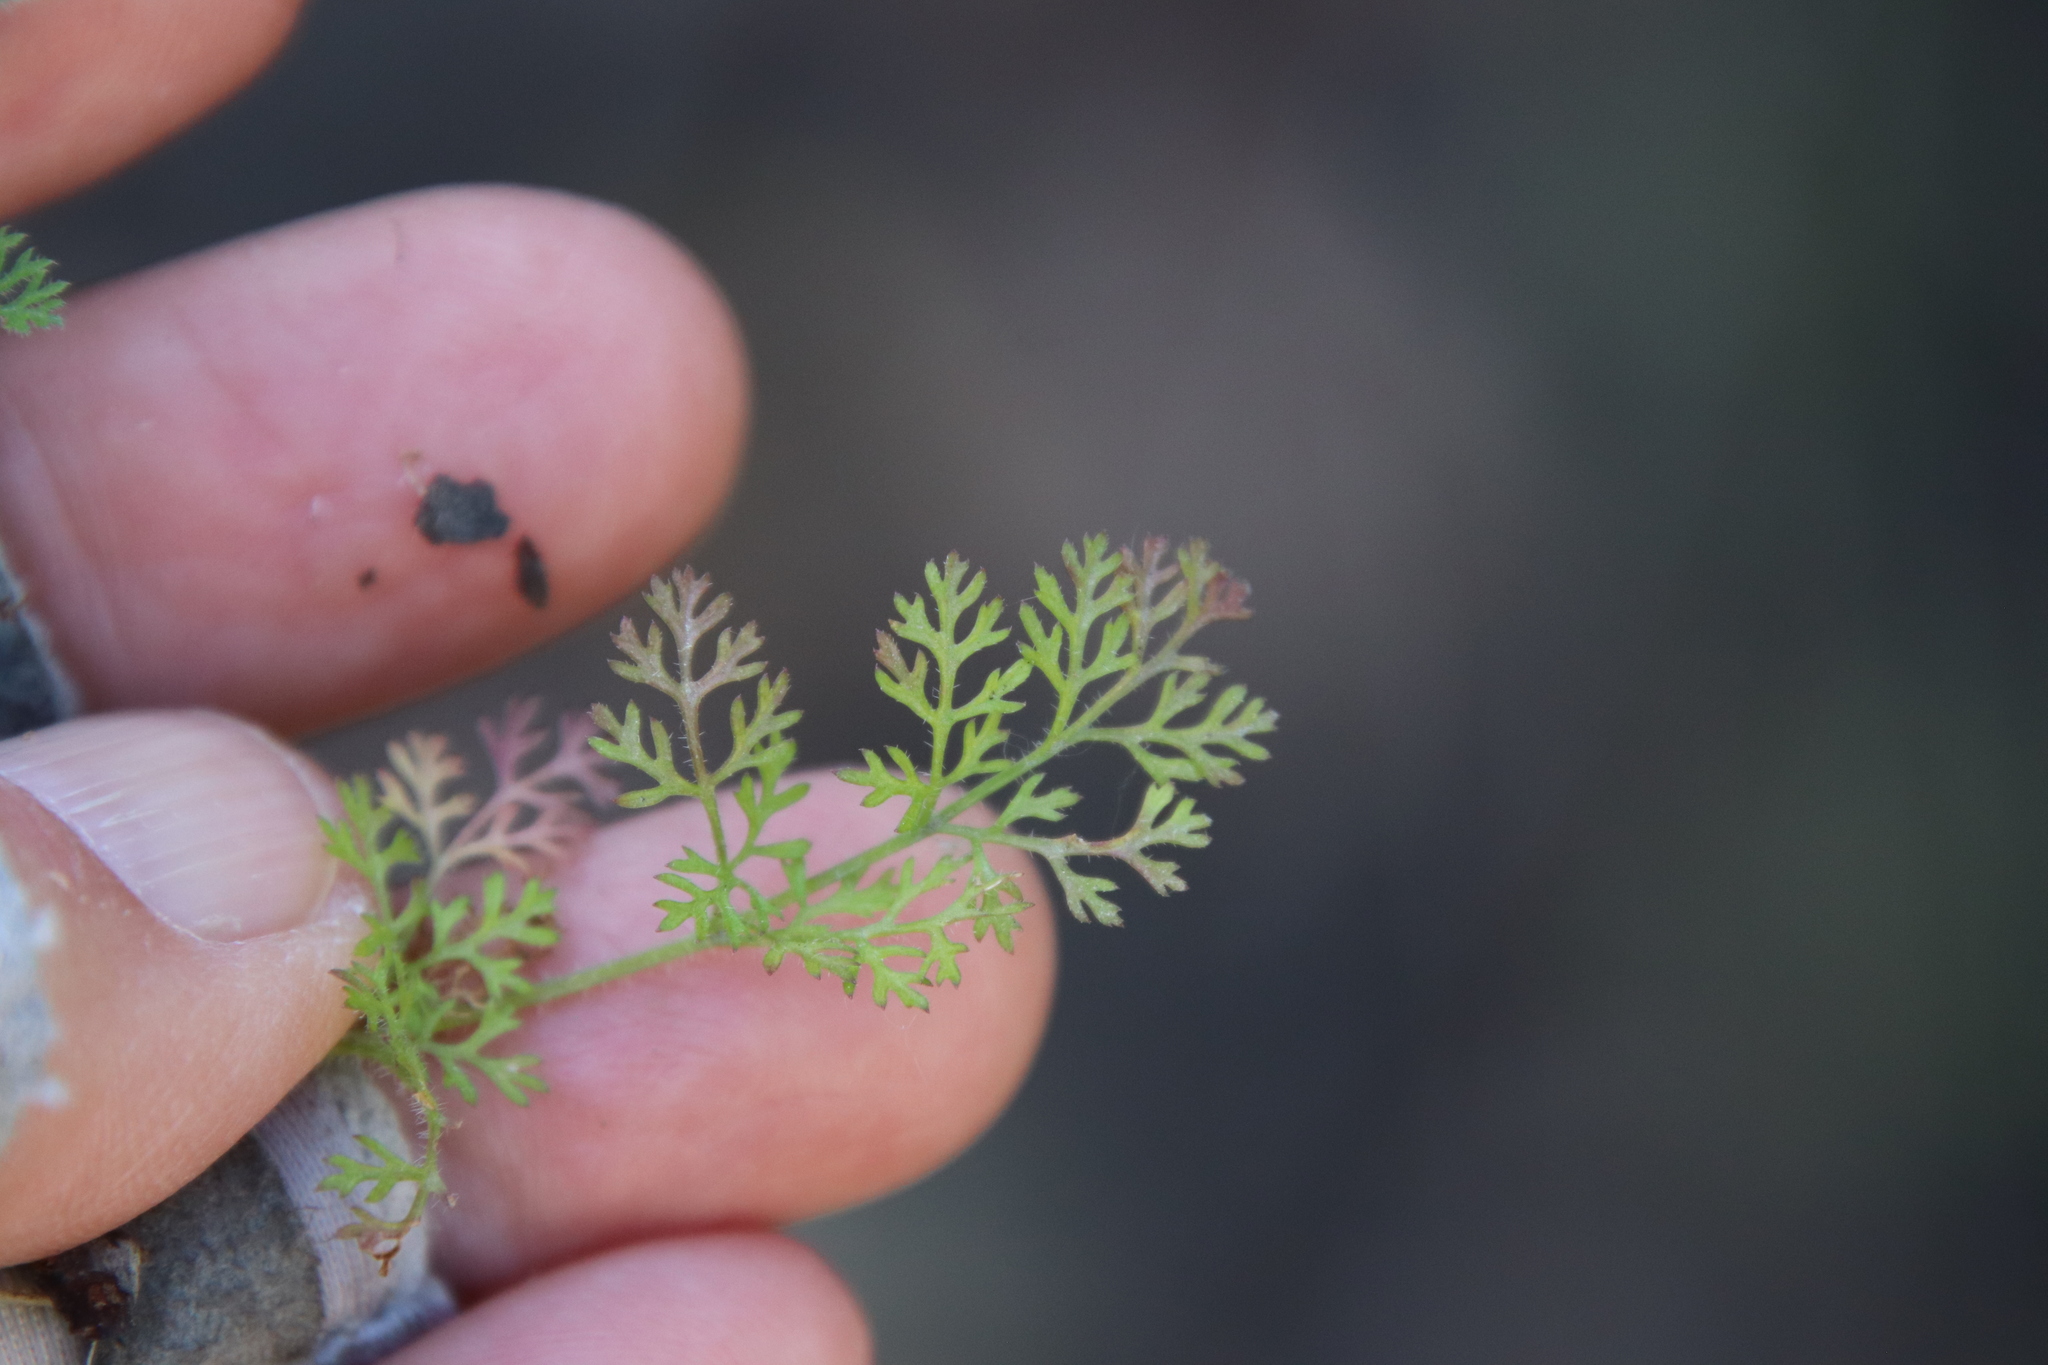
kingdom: Plantae
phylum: Tracheophyta
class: Magnoliopsida
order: Apiales
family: Apiaceae
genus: Daucus
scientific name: Daucus pusillus
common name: Southwest wild carrot
